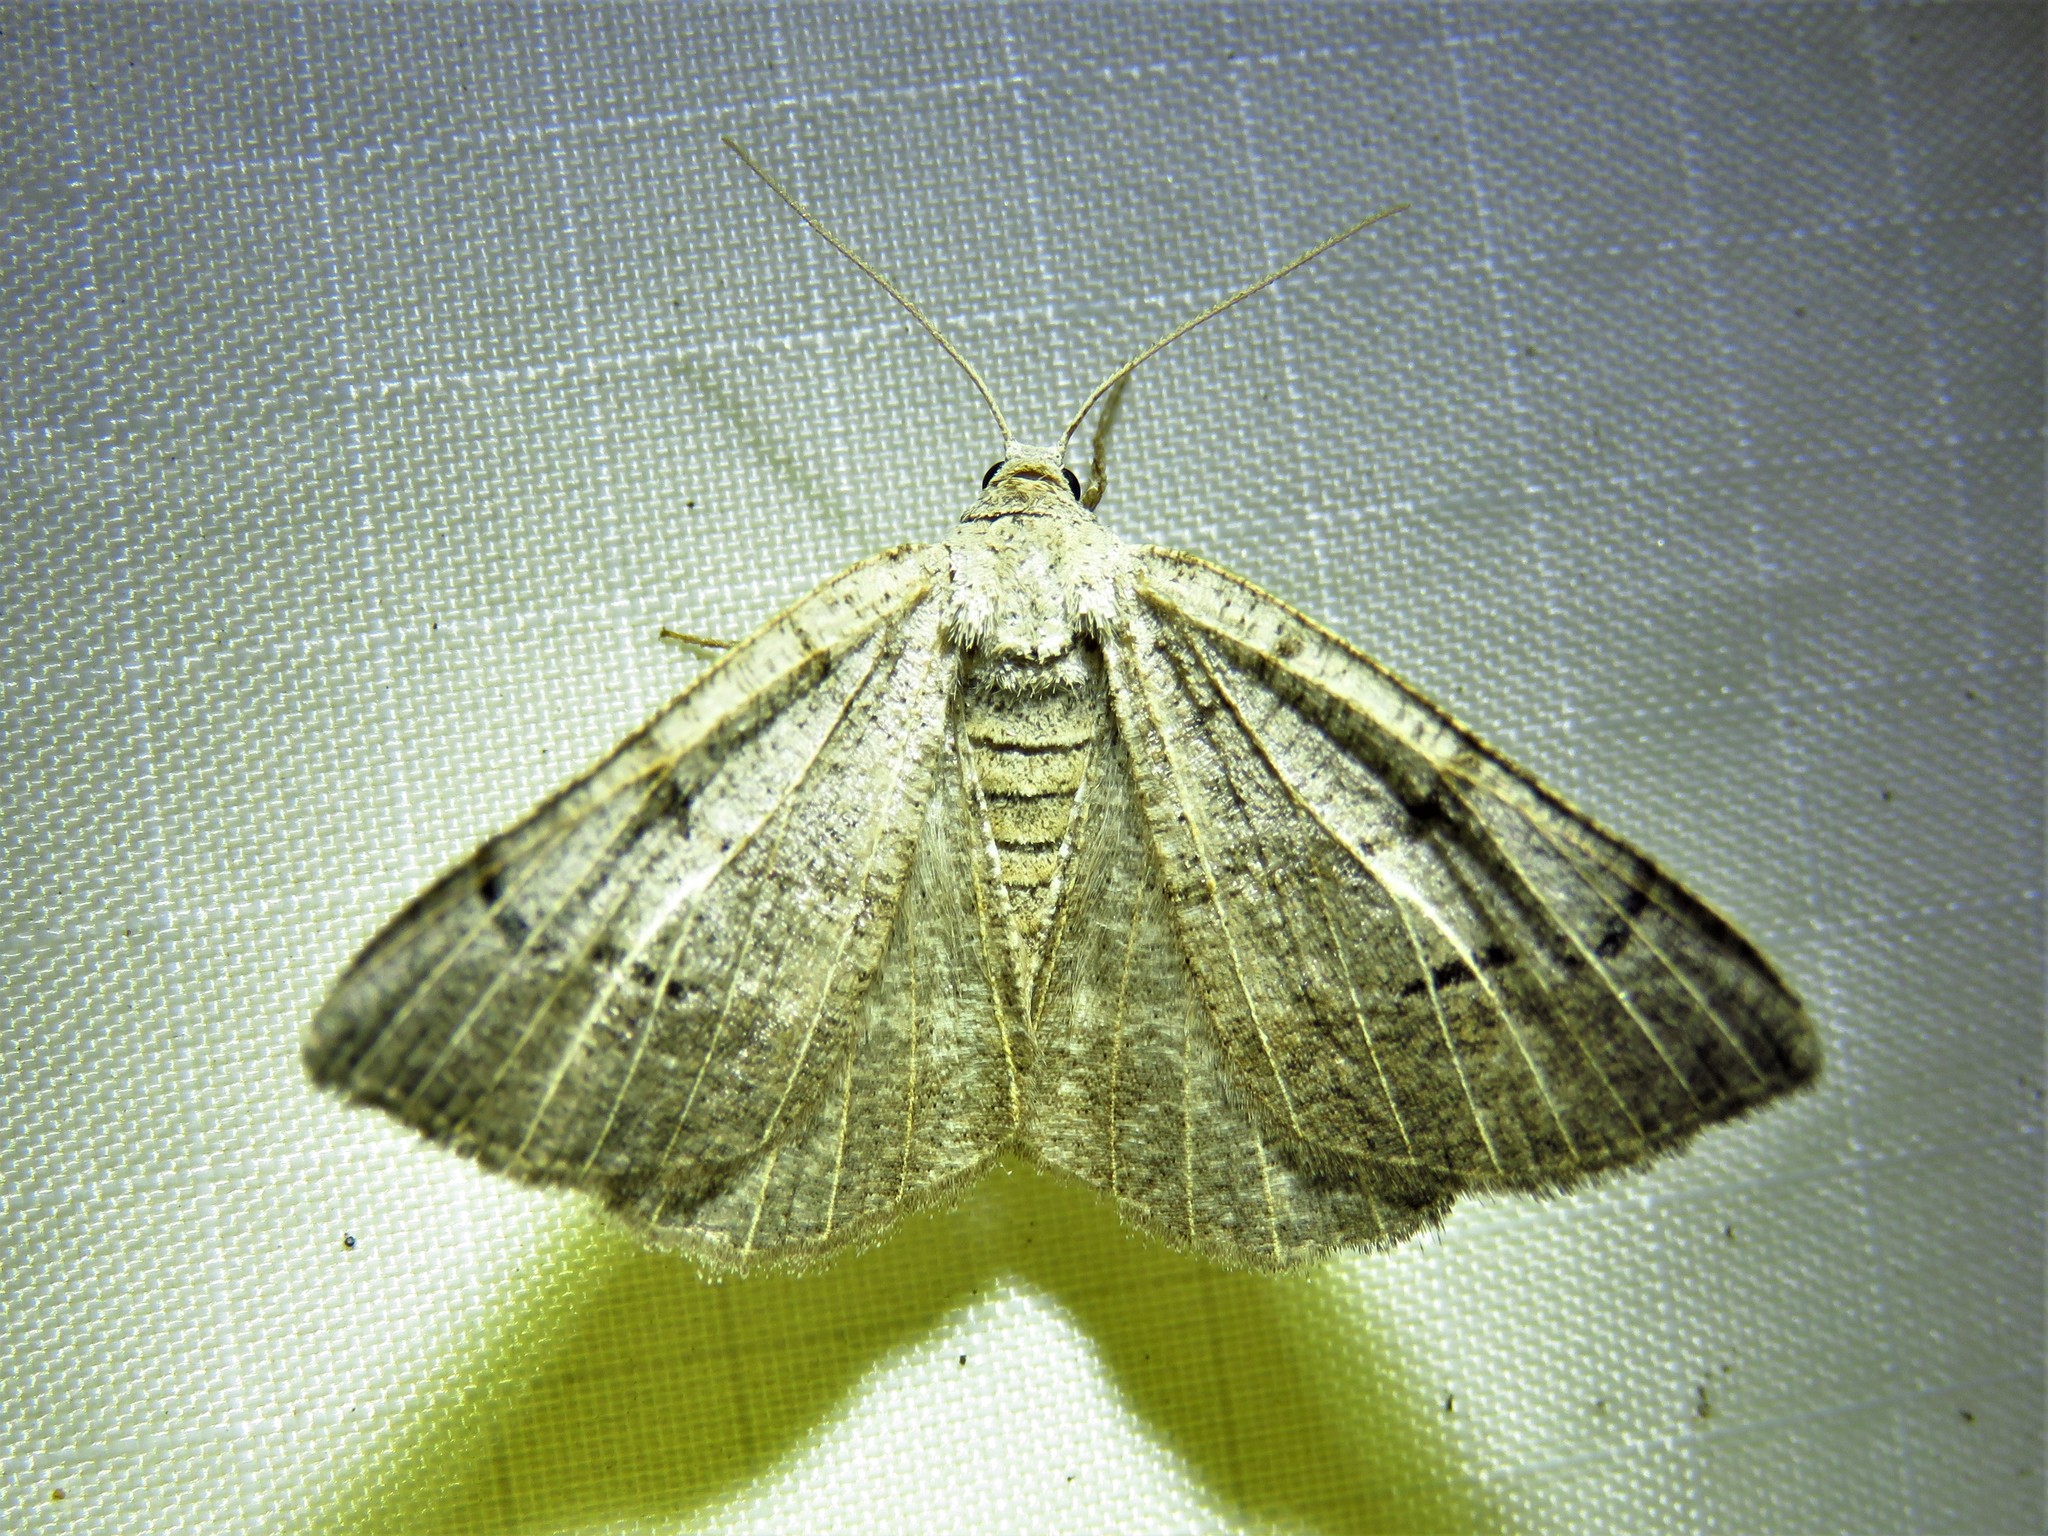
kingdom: Animalia
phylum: Arthropoda
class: Insecta
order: Lepidoptera
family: Geometridae
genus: Isturgia
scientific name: Isturgia dislocaria
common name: Pale-viened enconista
